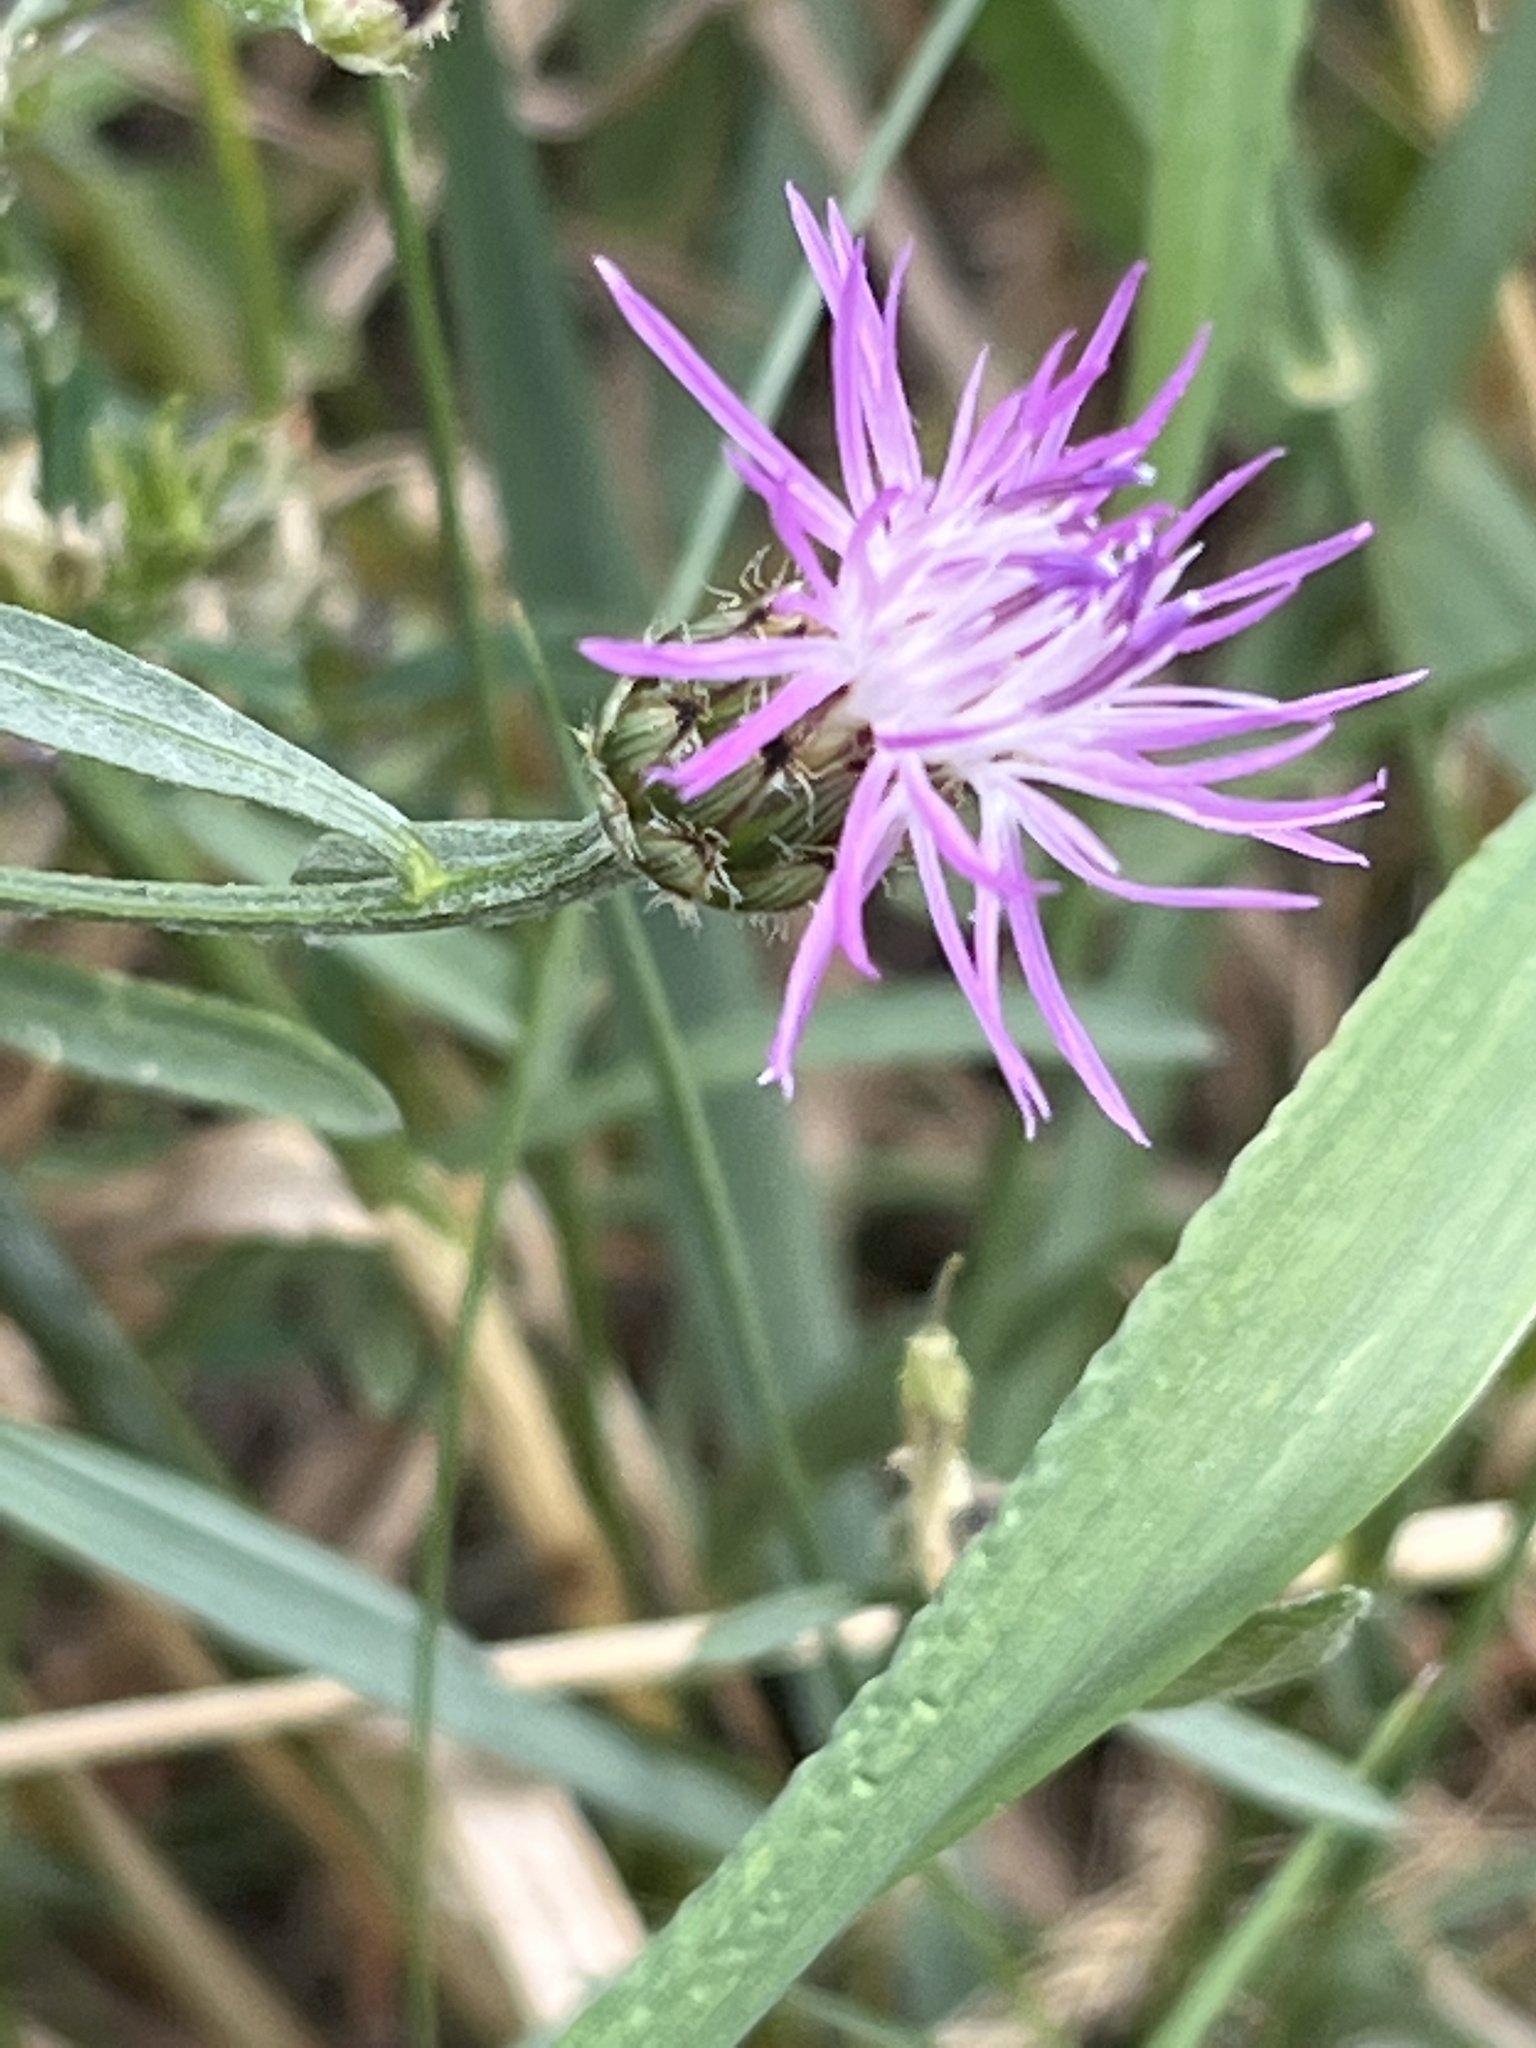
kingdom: Plantae
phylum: Tracheophyta
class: Magnoliopsida
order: Asterales
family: Asteraceae
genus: Centaurea
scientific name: Centaurea stoebe
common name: Spotted knapweed
